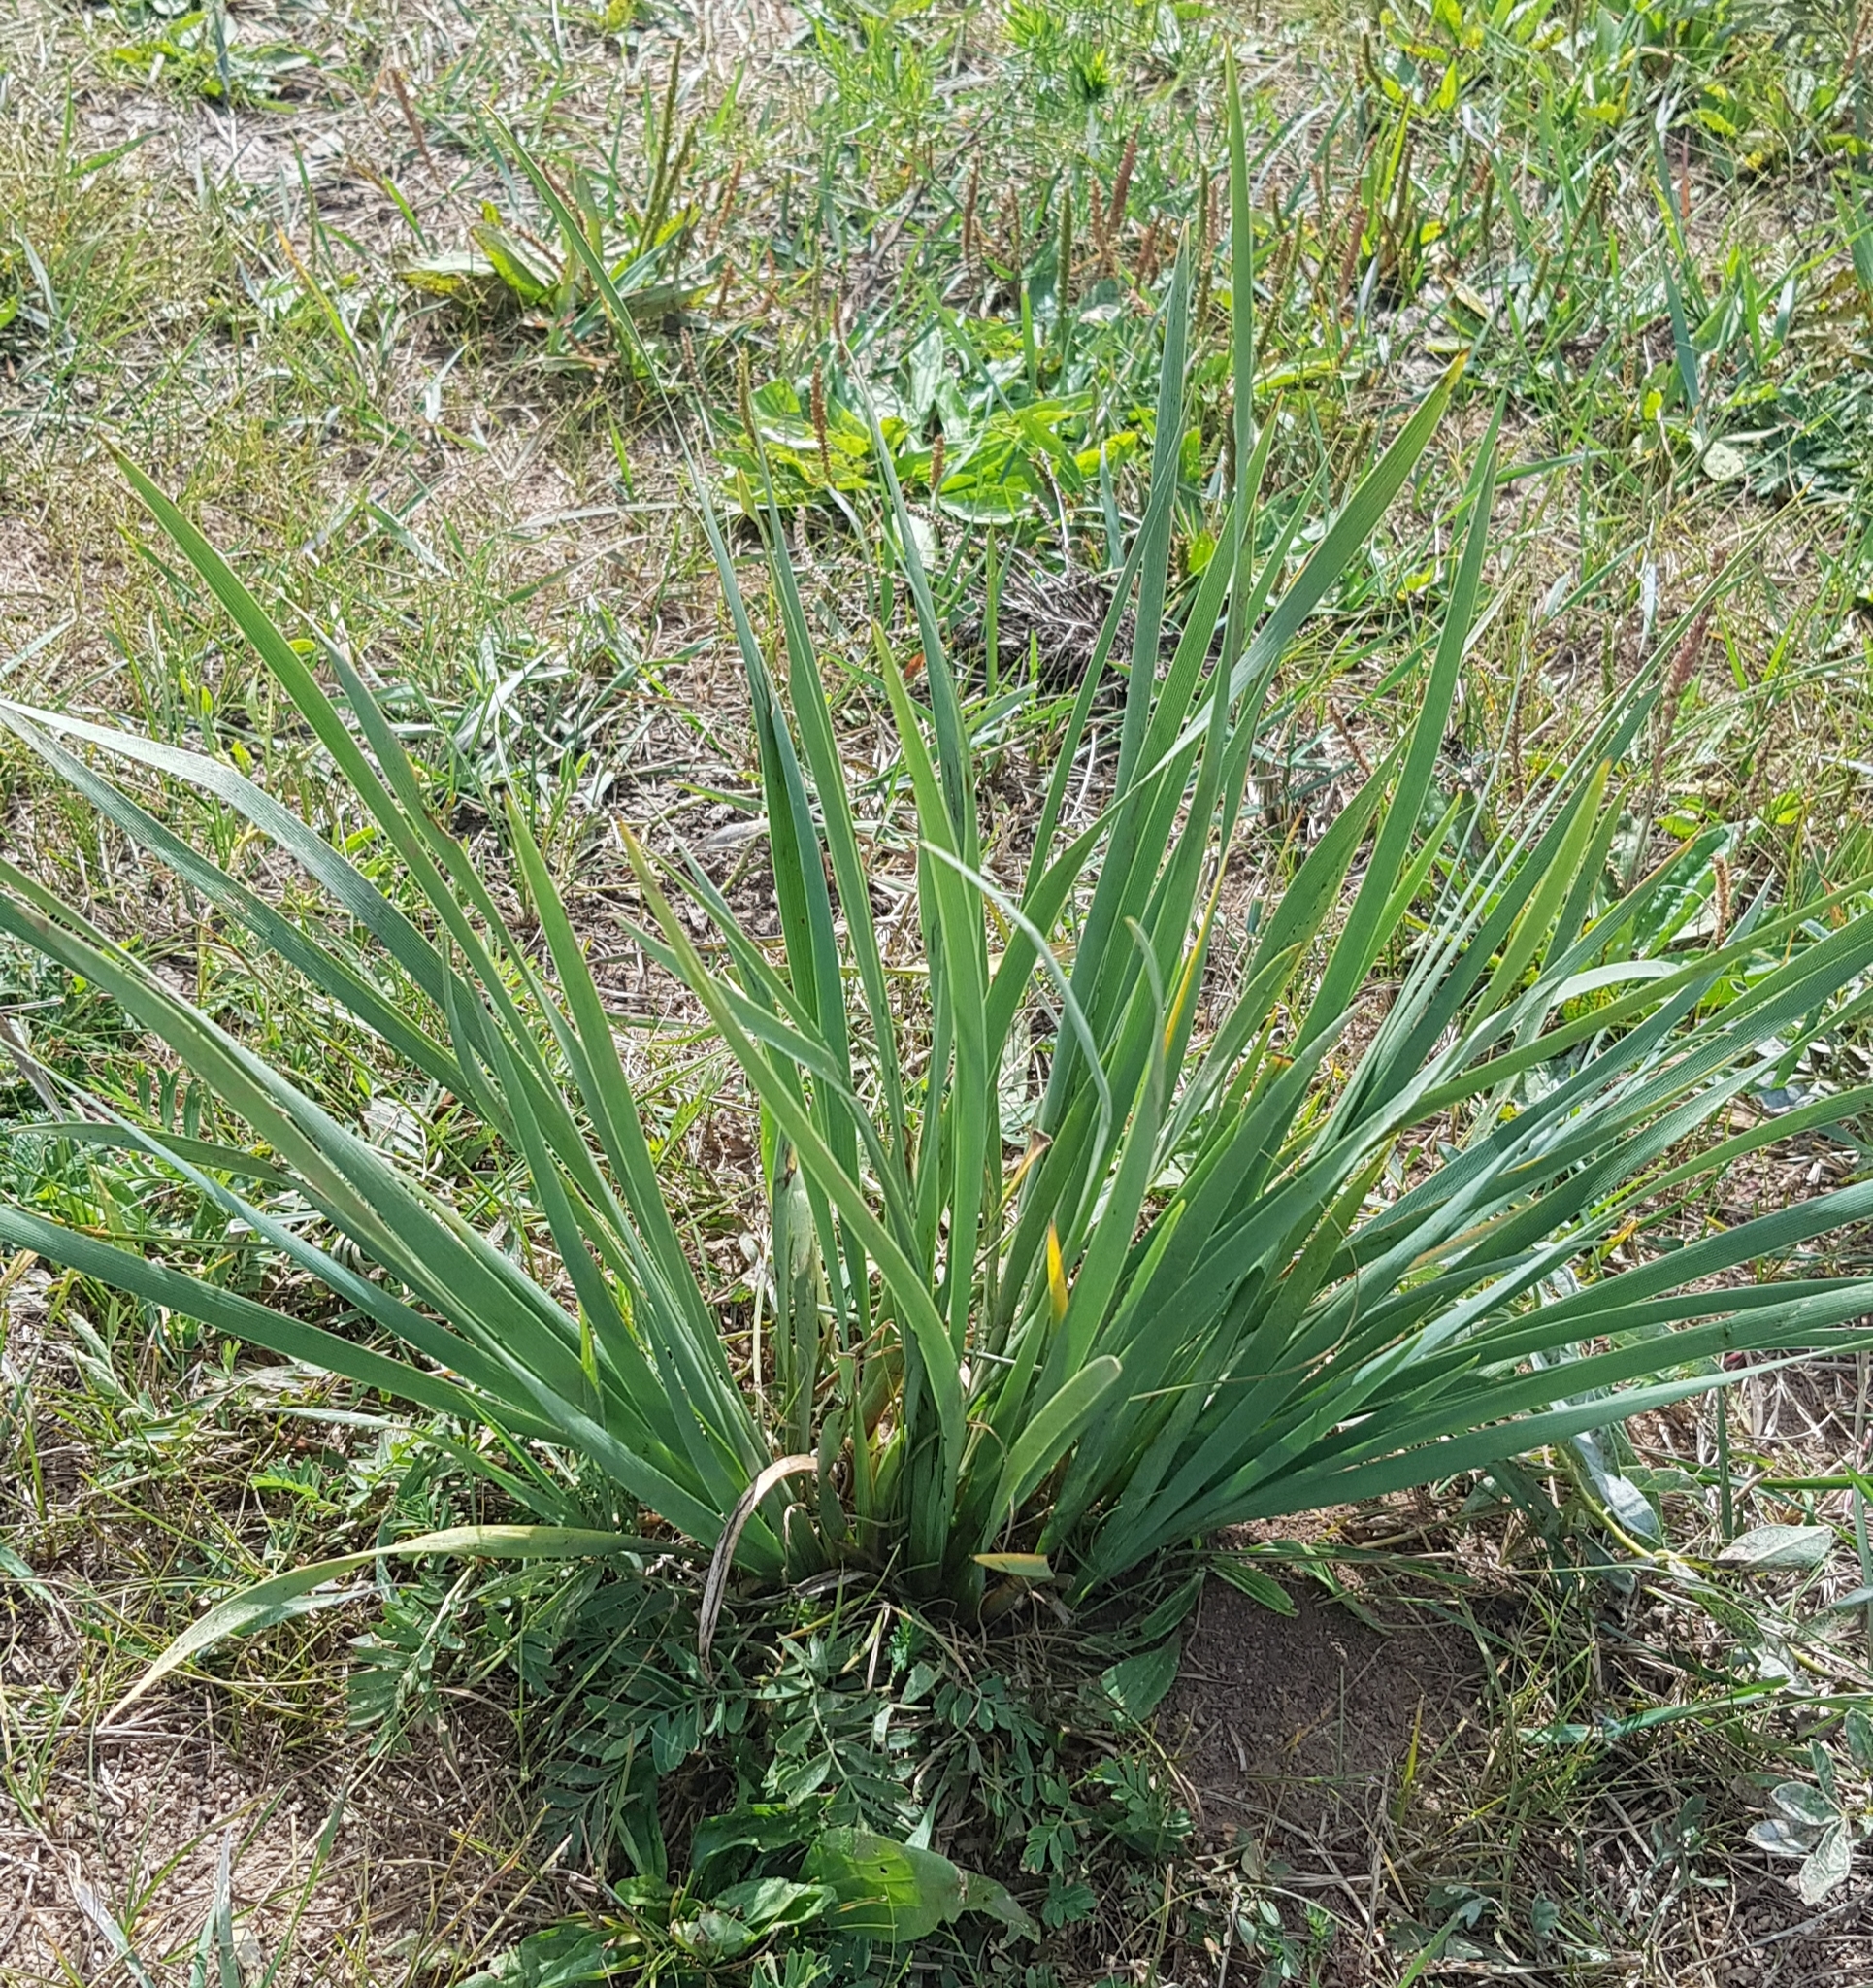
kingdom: Plantae
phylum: Tracheophyta
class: Liliopsida
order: Asparagales
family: Iridaceae
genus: Iris
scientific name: Iris lactea
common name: White-flower chinese iris
